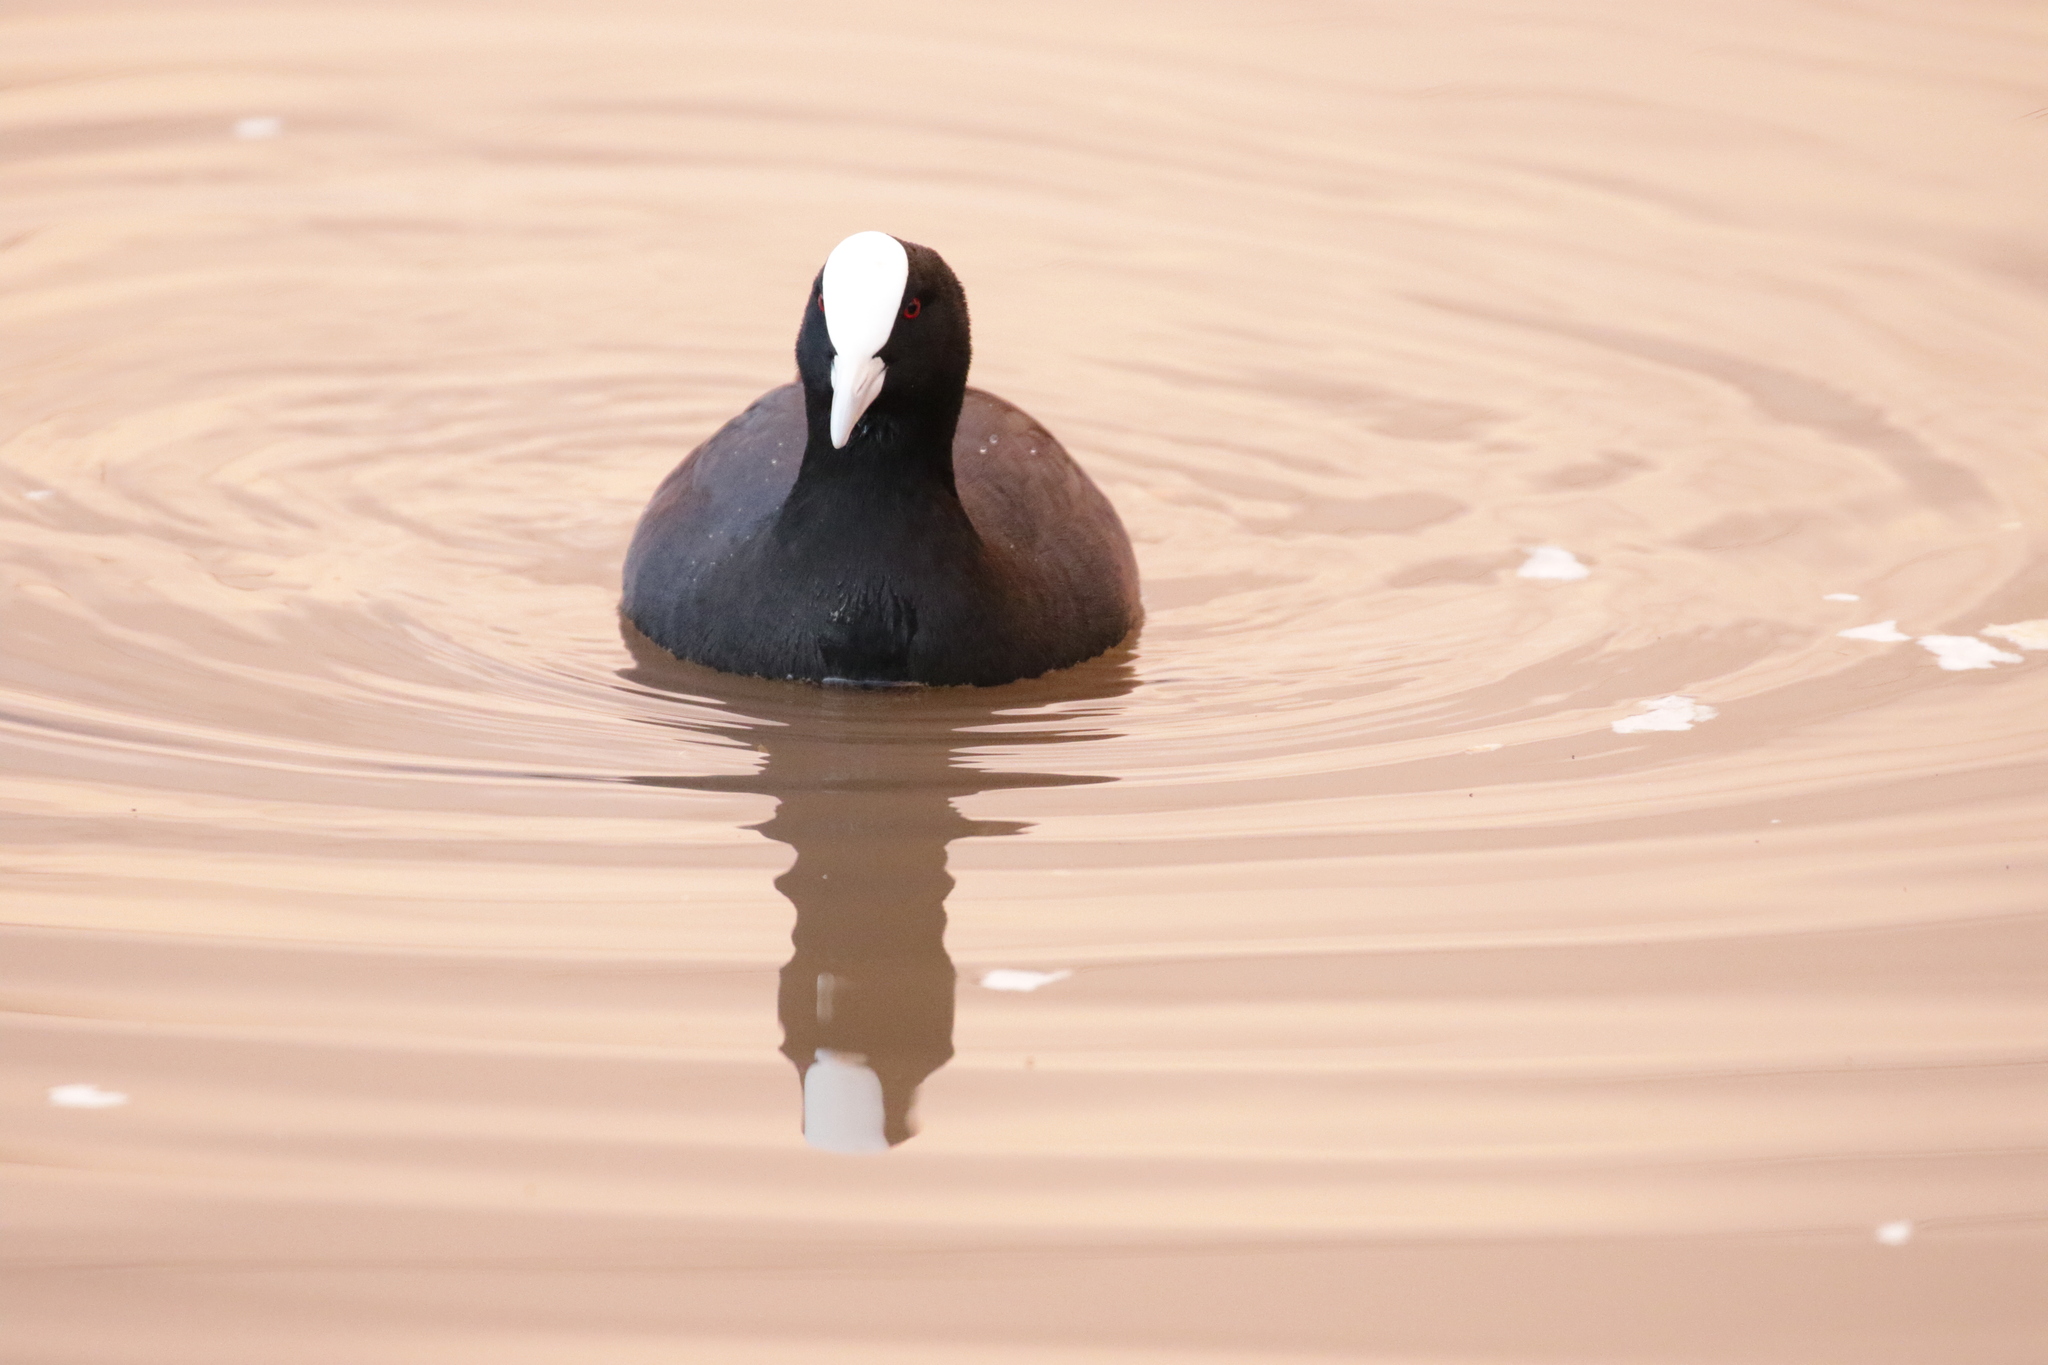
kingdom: Animalia
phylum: Chordata
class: Aves
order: Gruiformes
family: Rallidae
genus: Fulica
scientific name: Fulica atra
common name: Eurasian coot
